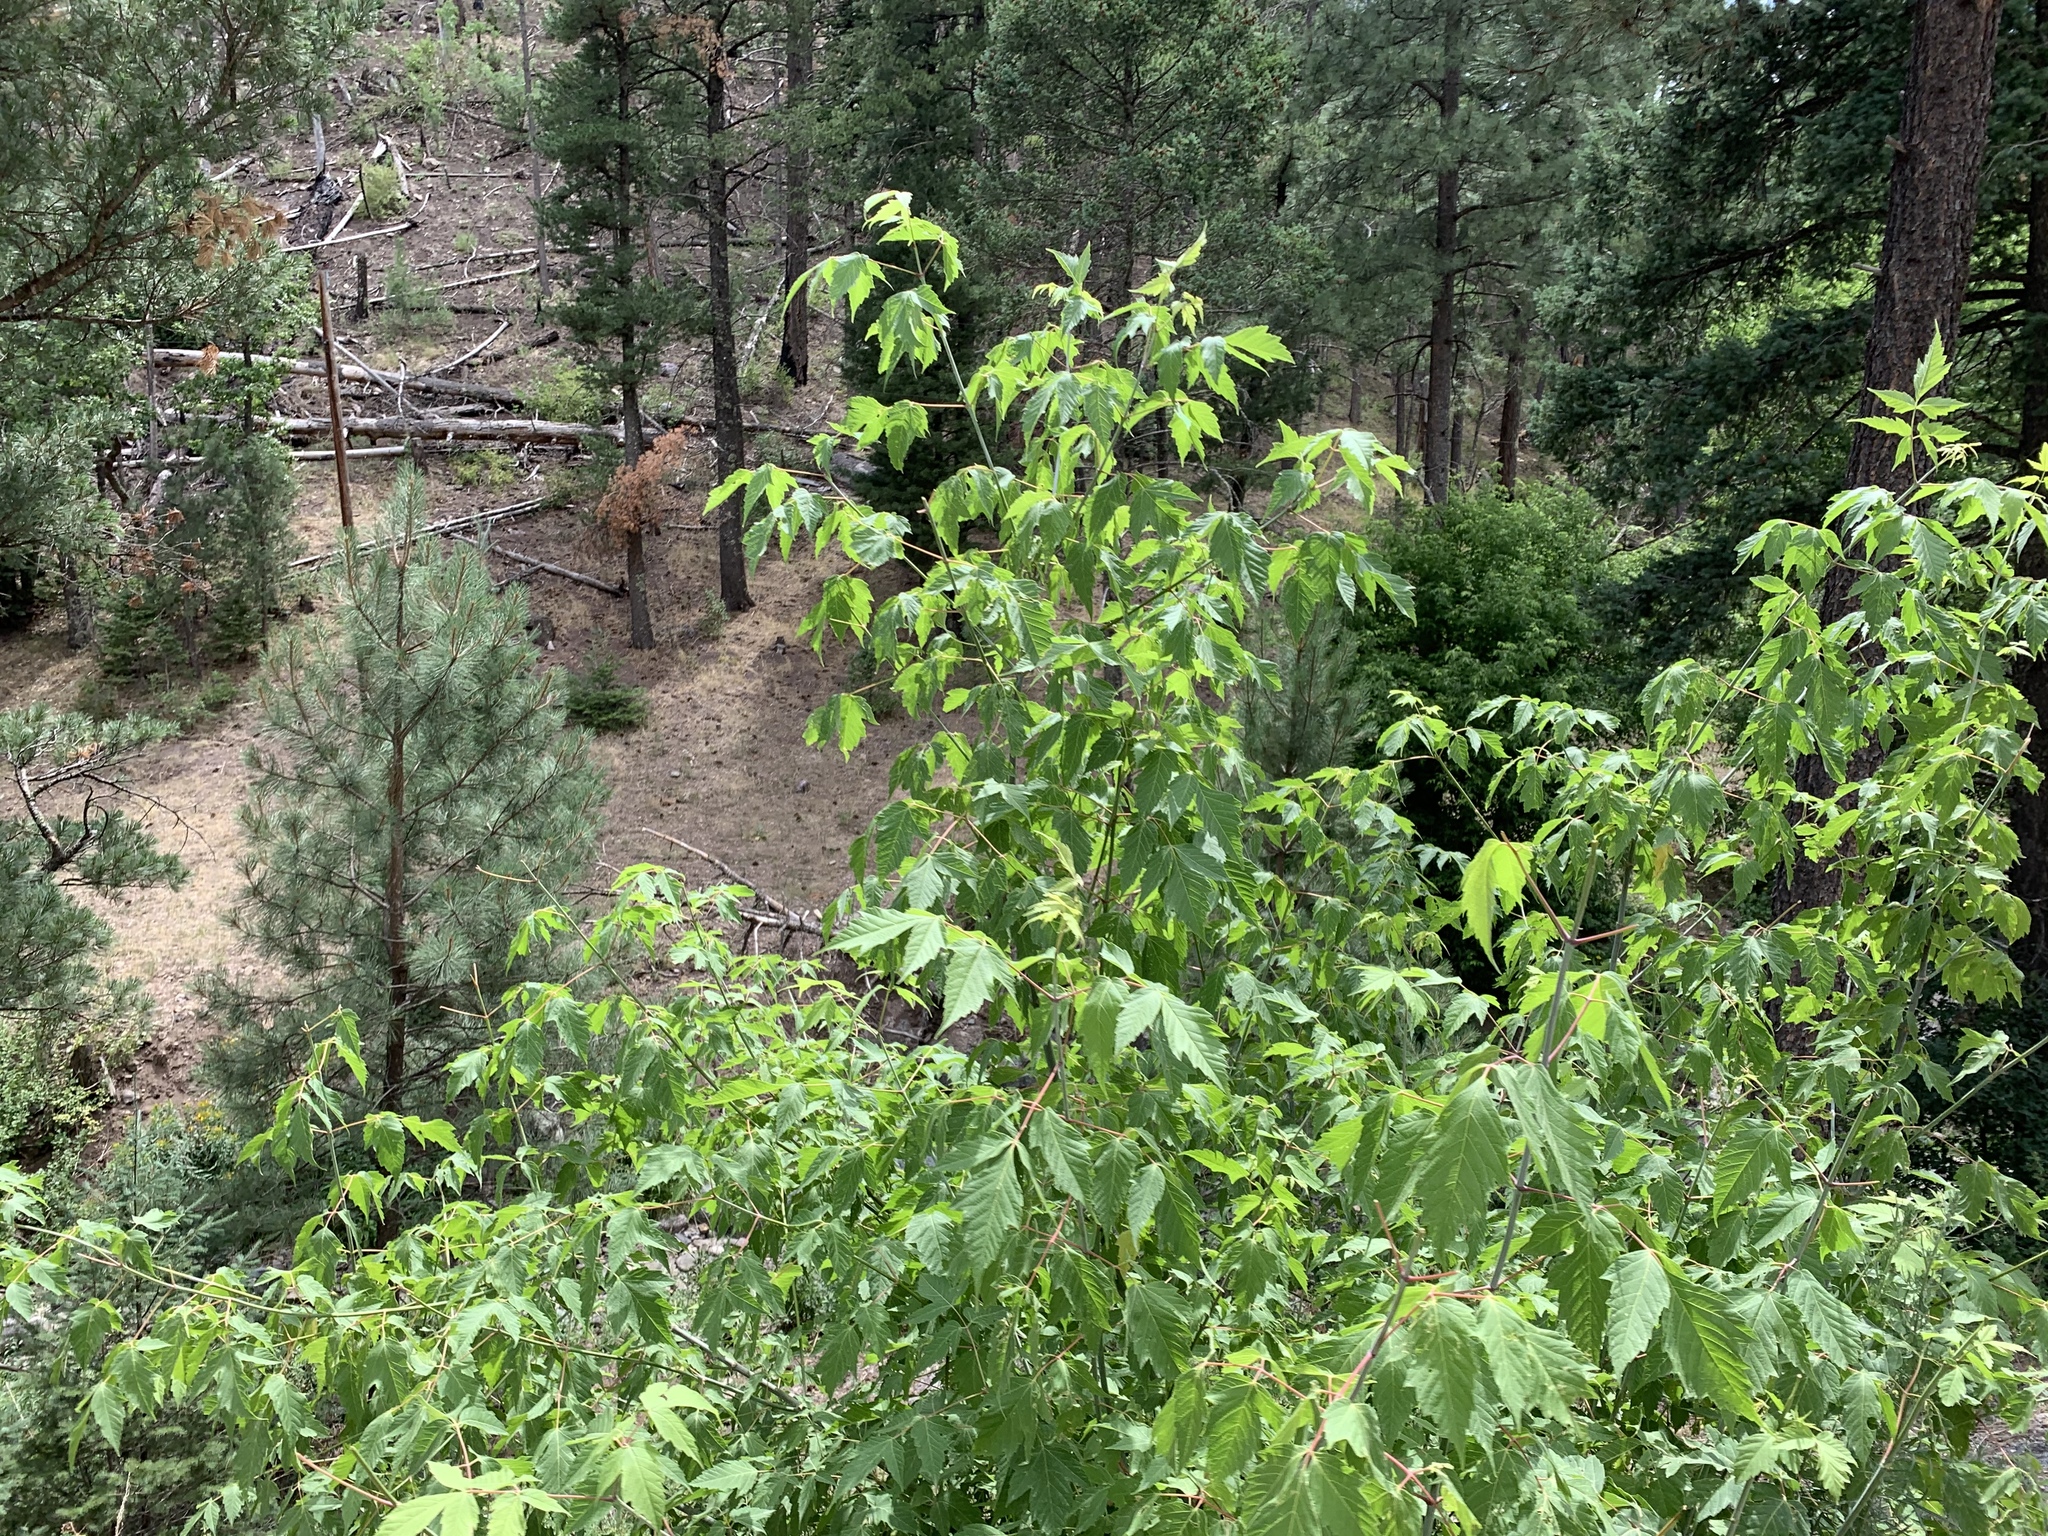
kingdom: Plantae
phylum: Tracheophyta
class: Magnoliopsida
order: Sapindales
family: Sapindaceae
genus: Acer
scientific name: Acer negundo
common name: Ashleaf maple
